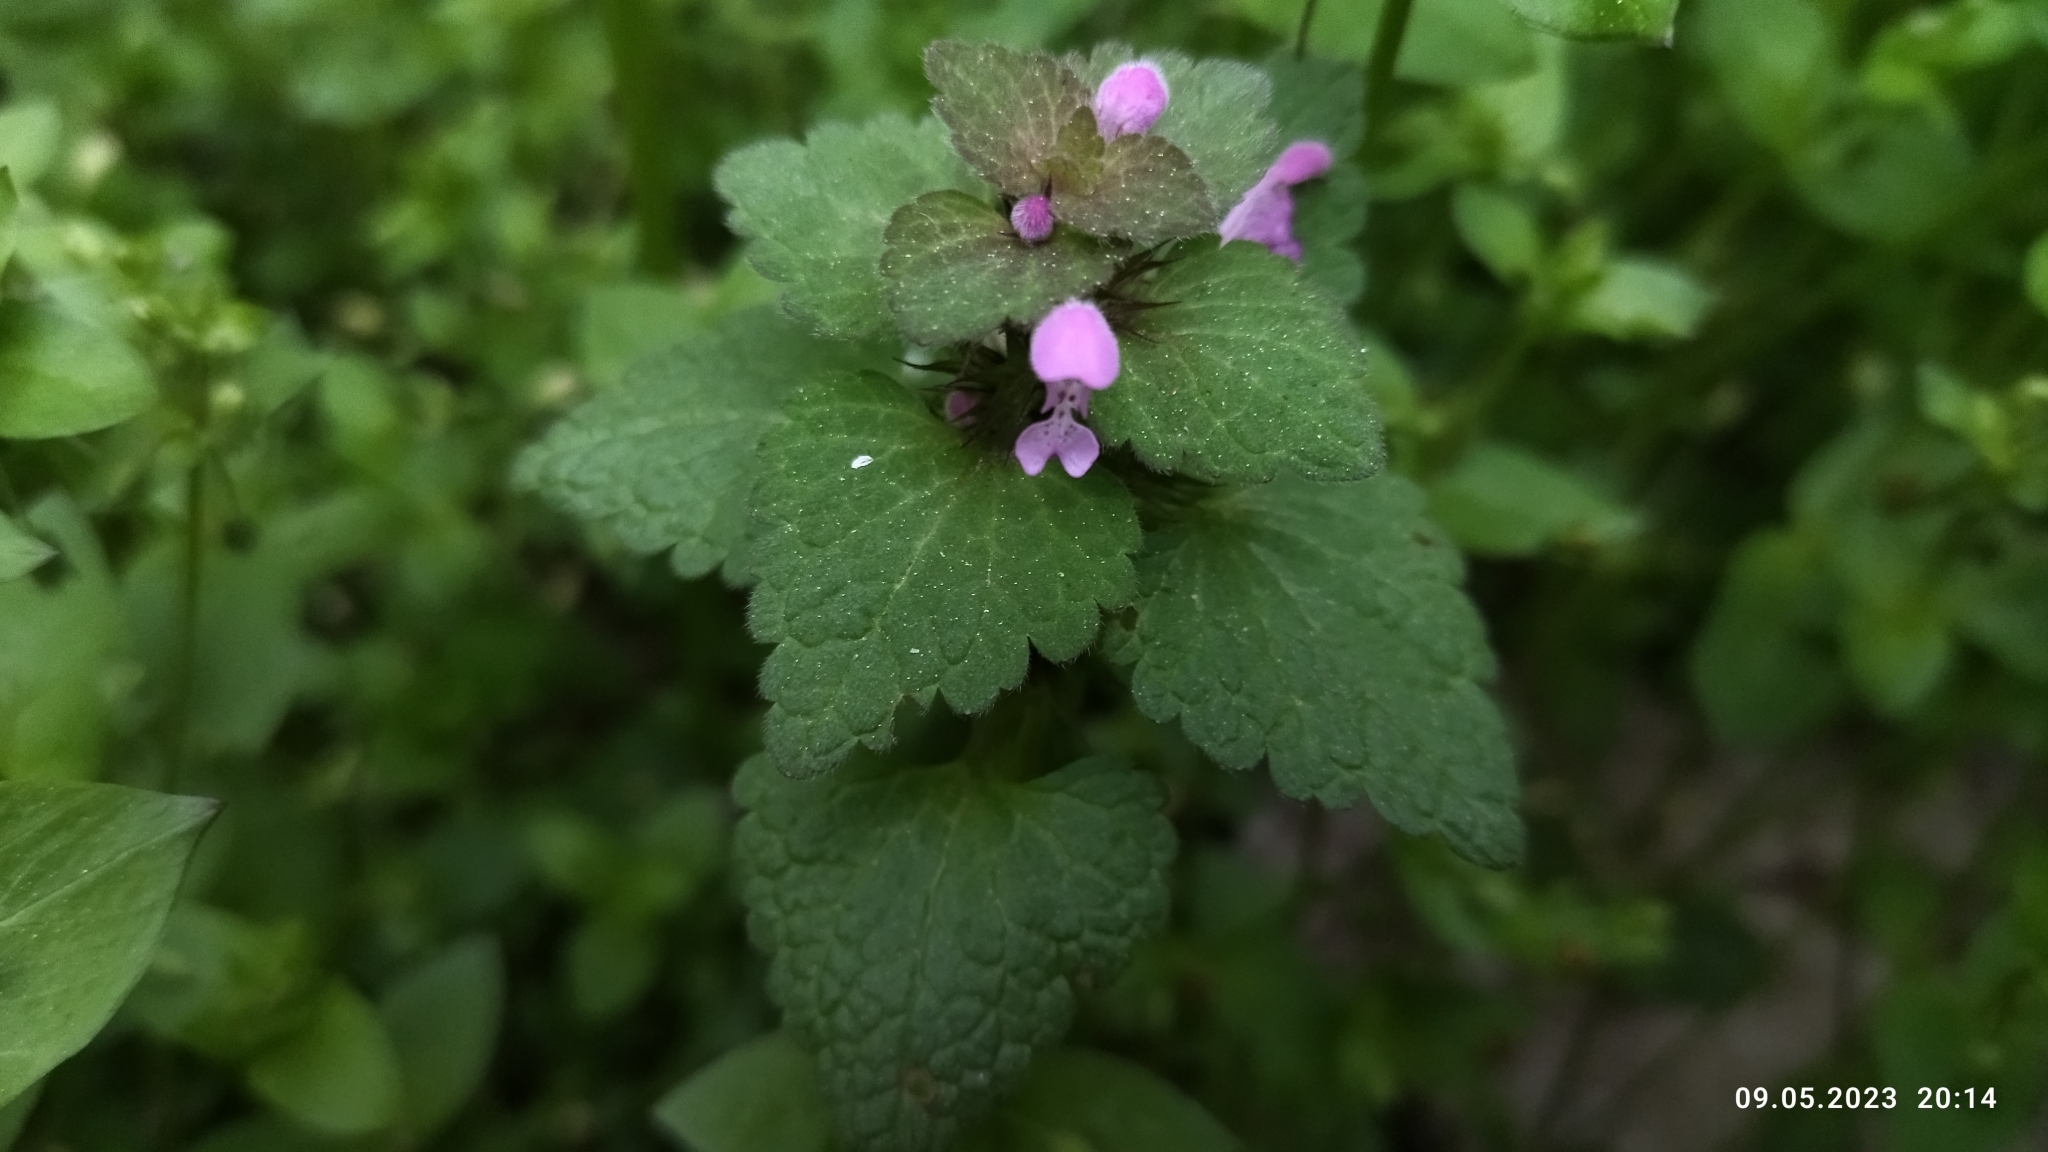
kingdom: Plantae
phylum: Tracheophyta
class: Magnoliopsida
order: Lamiales
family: Lamiaceae
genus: Lamium
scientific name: Lamium purpureum
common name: Red dead-nettle
